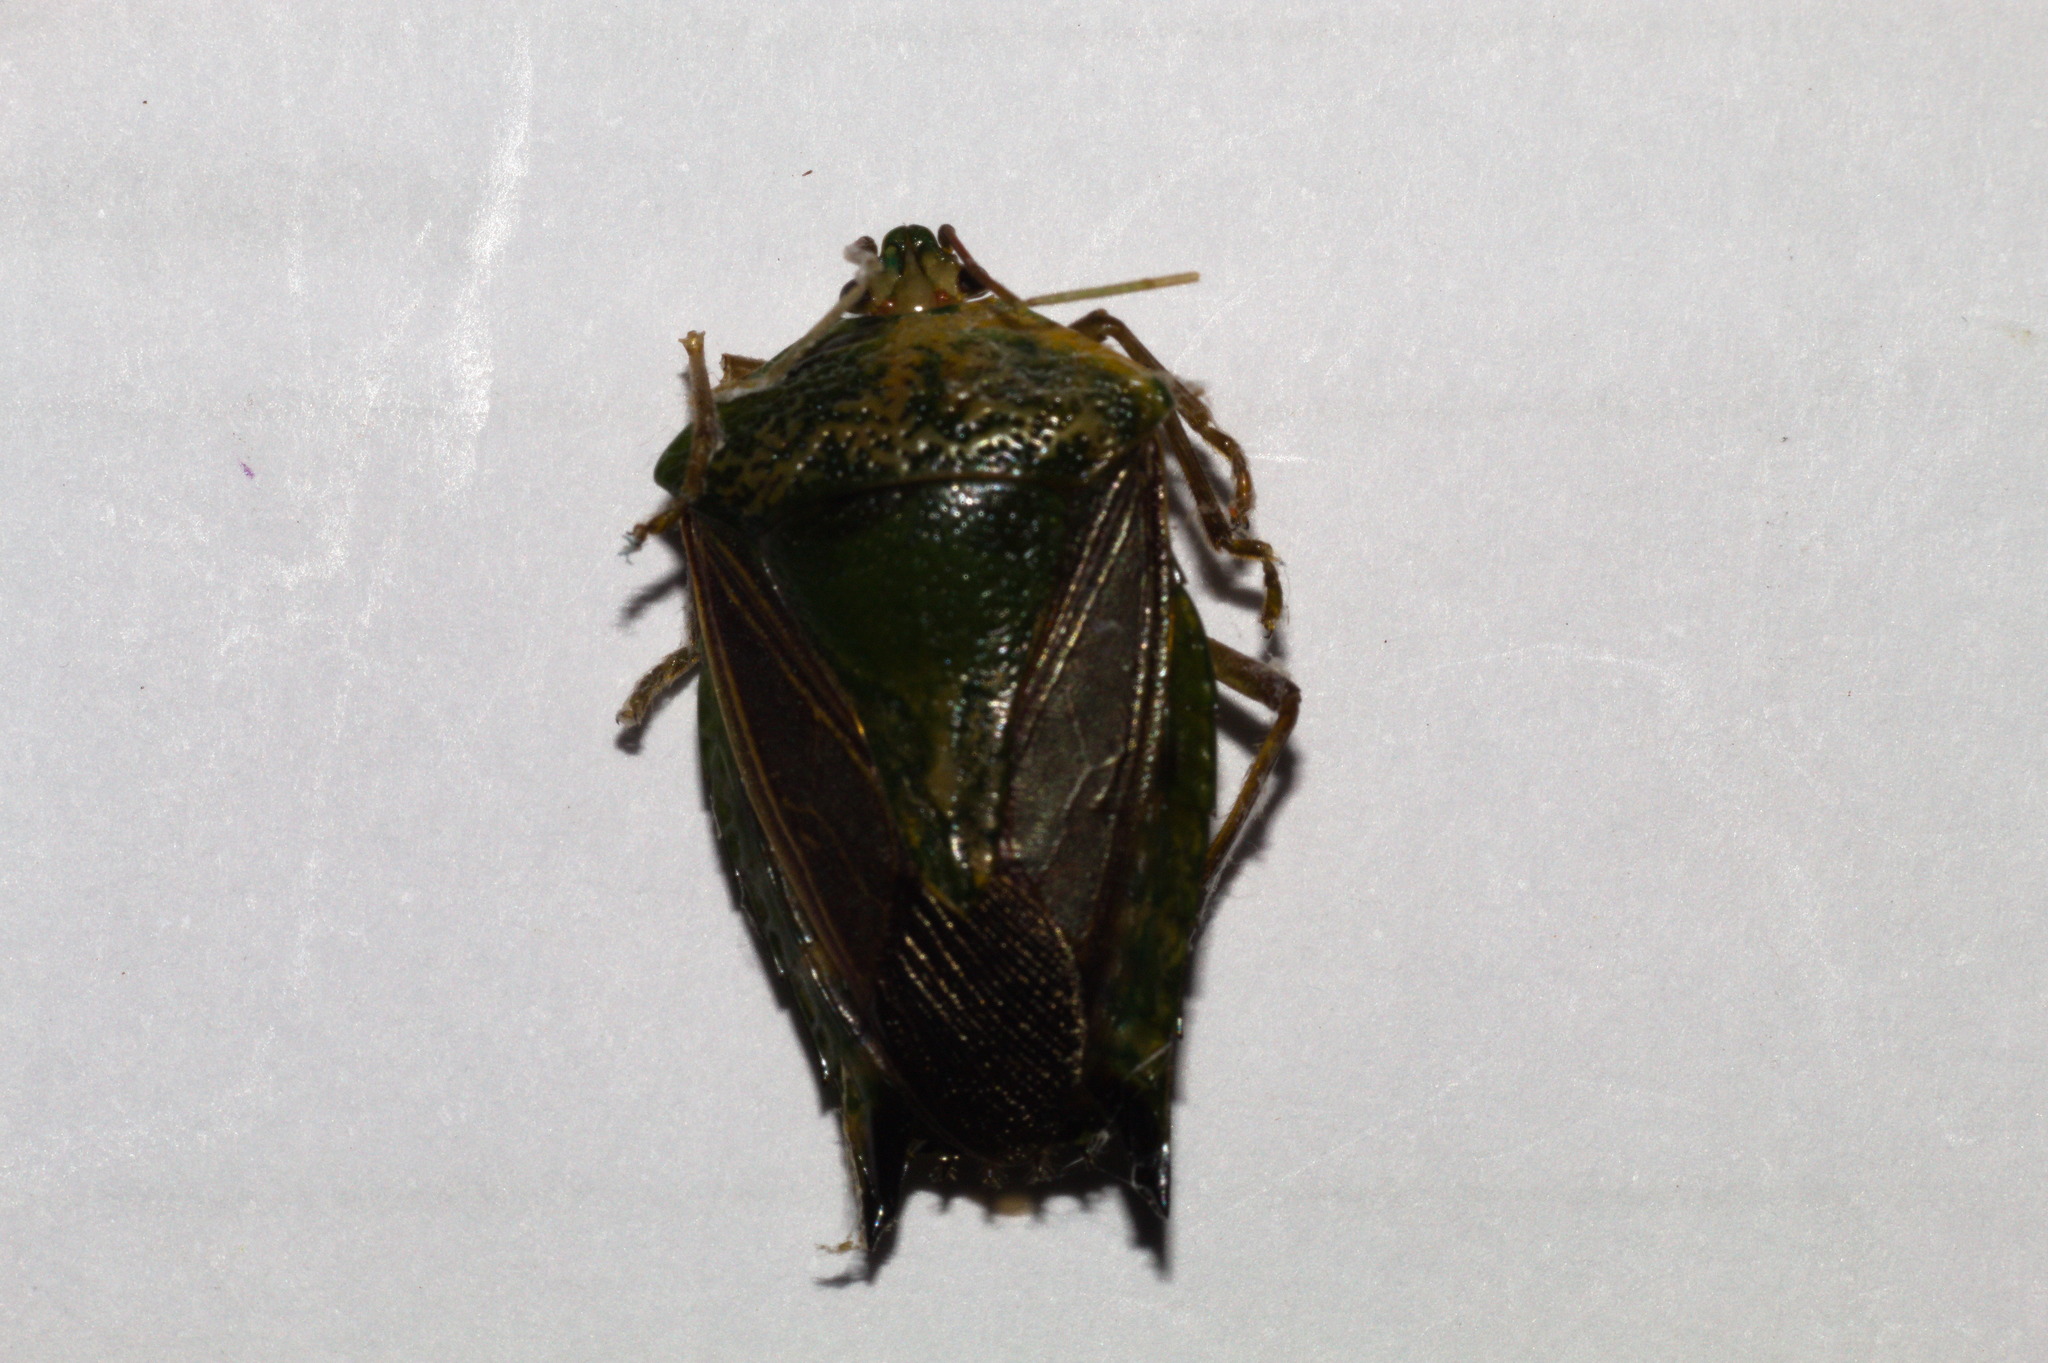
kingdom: Animalia
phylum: Arthropoda
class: Insecta
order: Hemiptera
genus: Pygoda
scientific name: Pygoda polita
